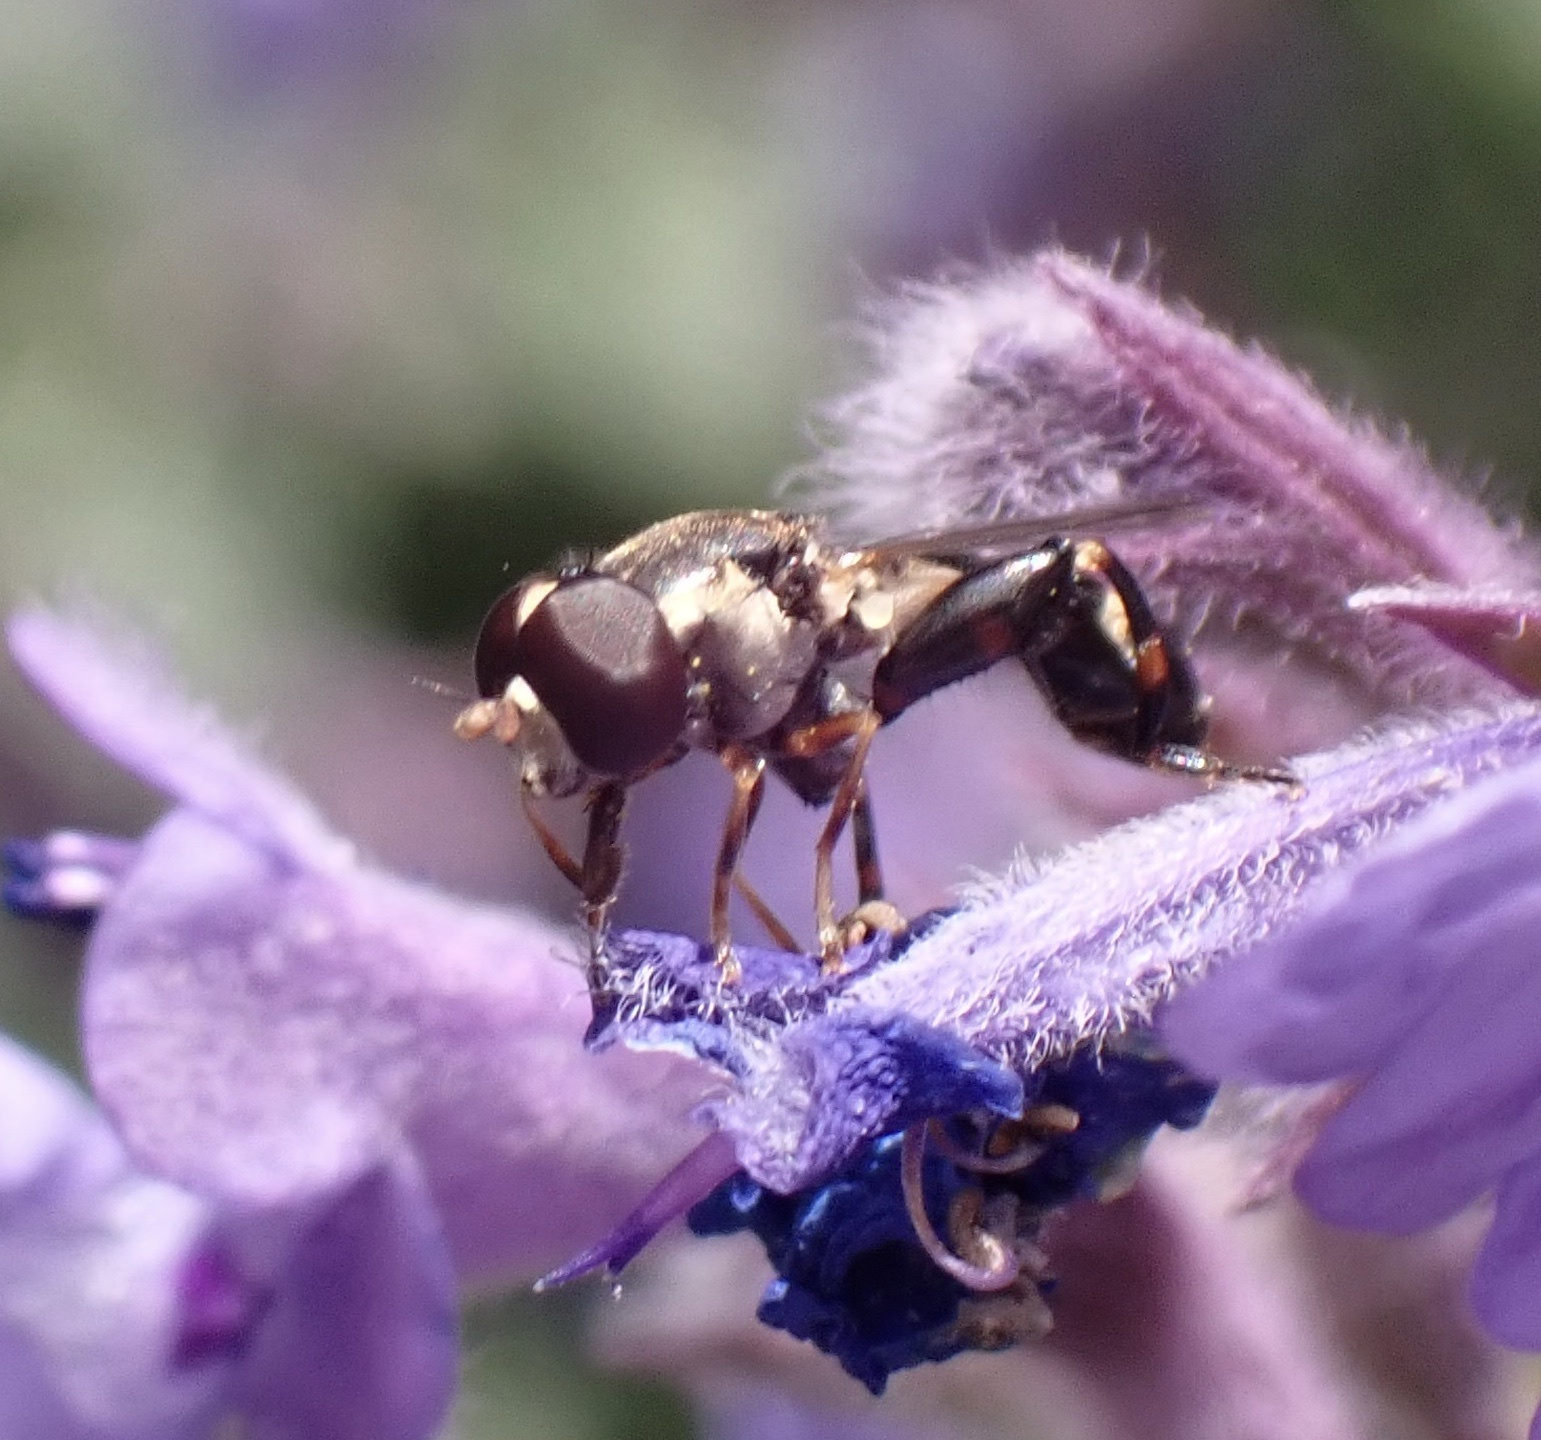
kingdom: Animalia
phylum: Arthropoda
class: Insecta
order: Diptera
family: Syrphidae
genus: Syritta
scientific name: Syritta pipiens
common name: Hover fly
